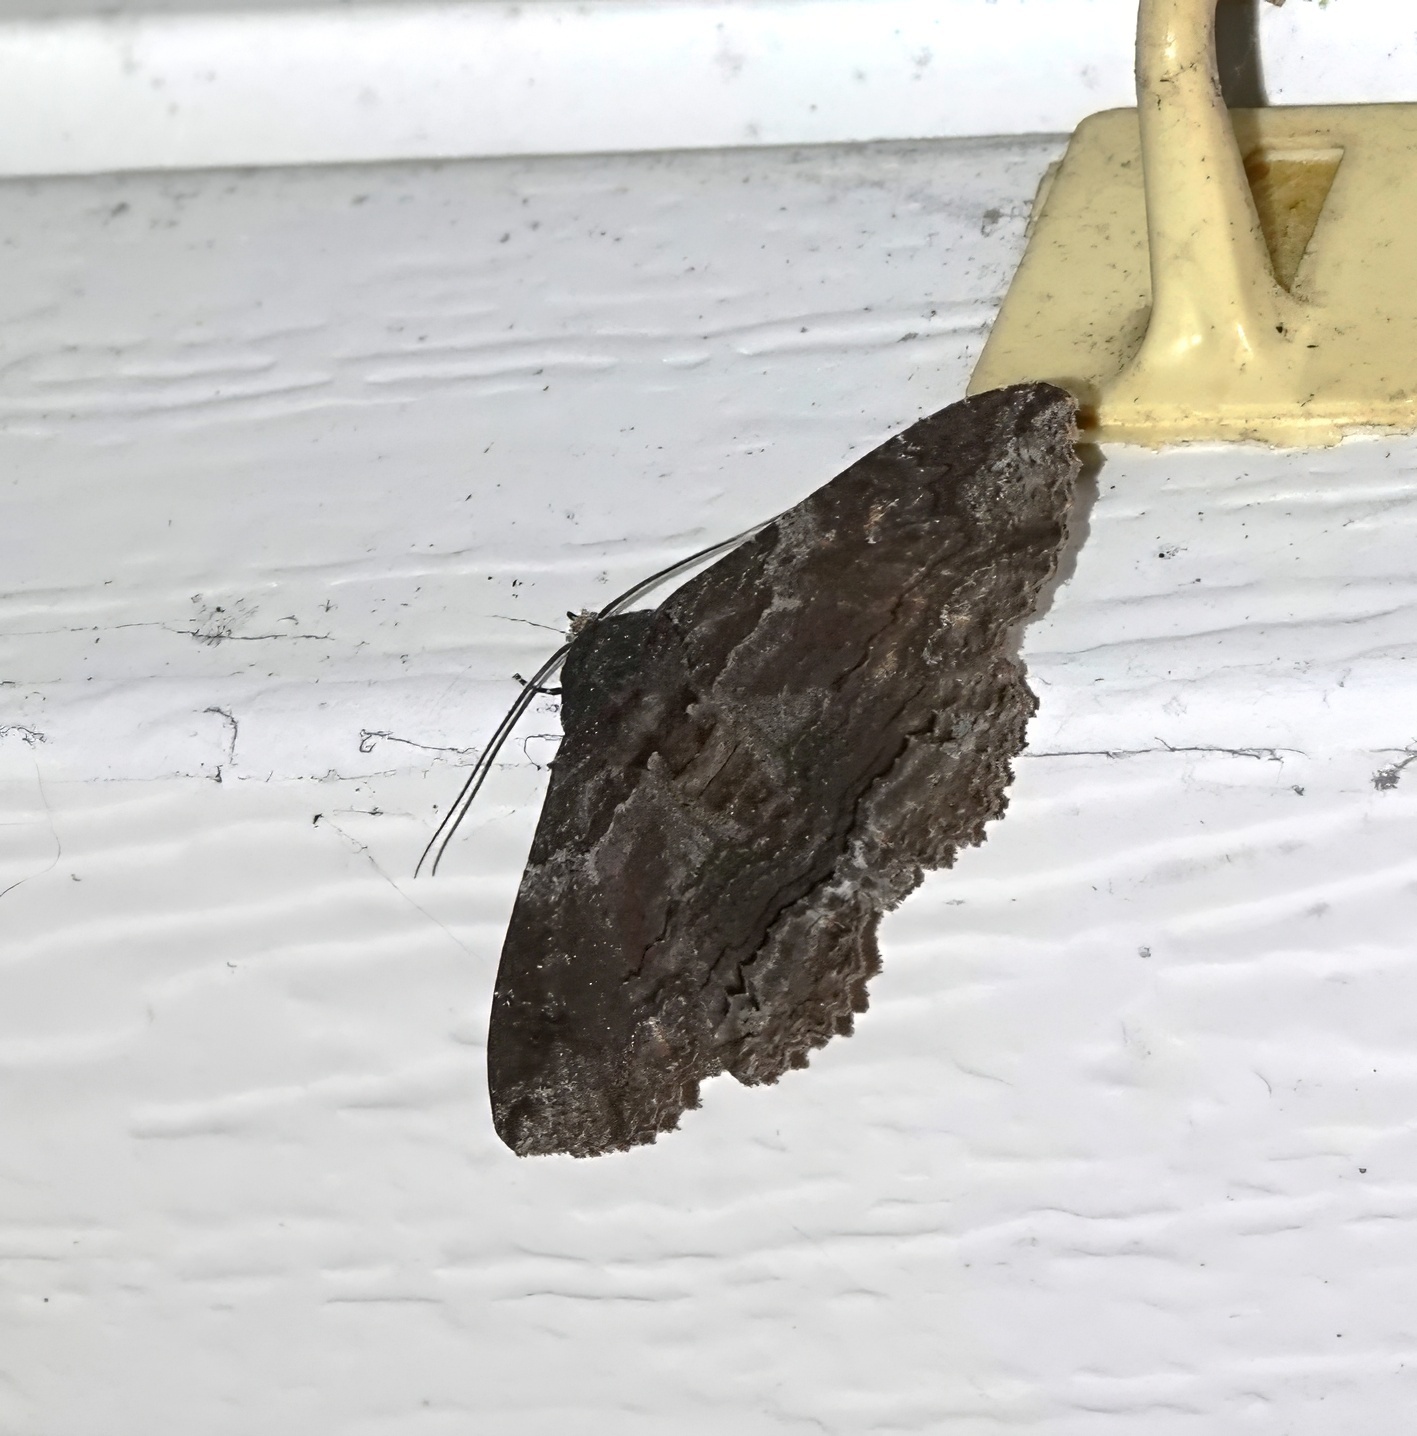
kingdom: Animalia
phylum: Arthropoda
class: Insecta
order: Lepidoptera
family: Erebidae
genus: Zale
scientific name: Zale lunata
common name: Lunate zale moth
